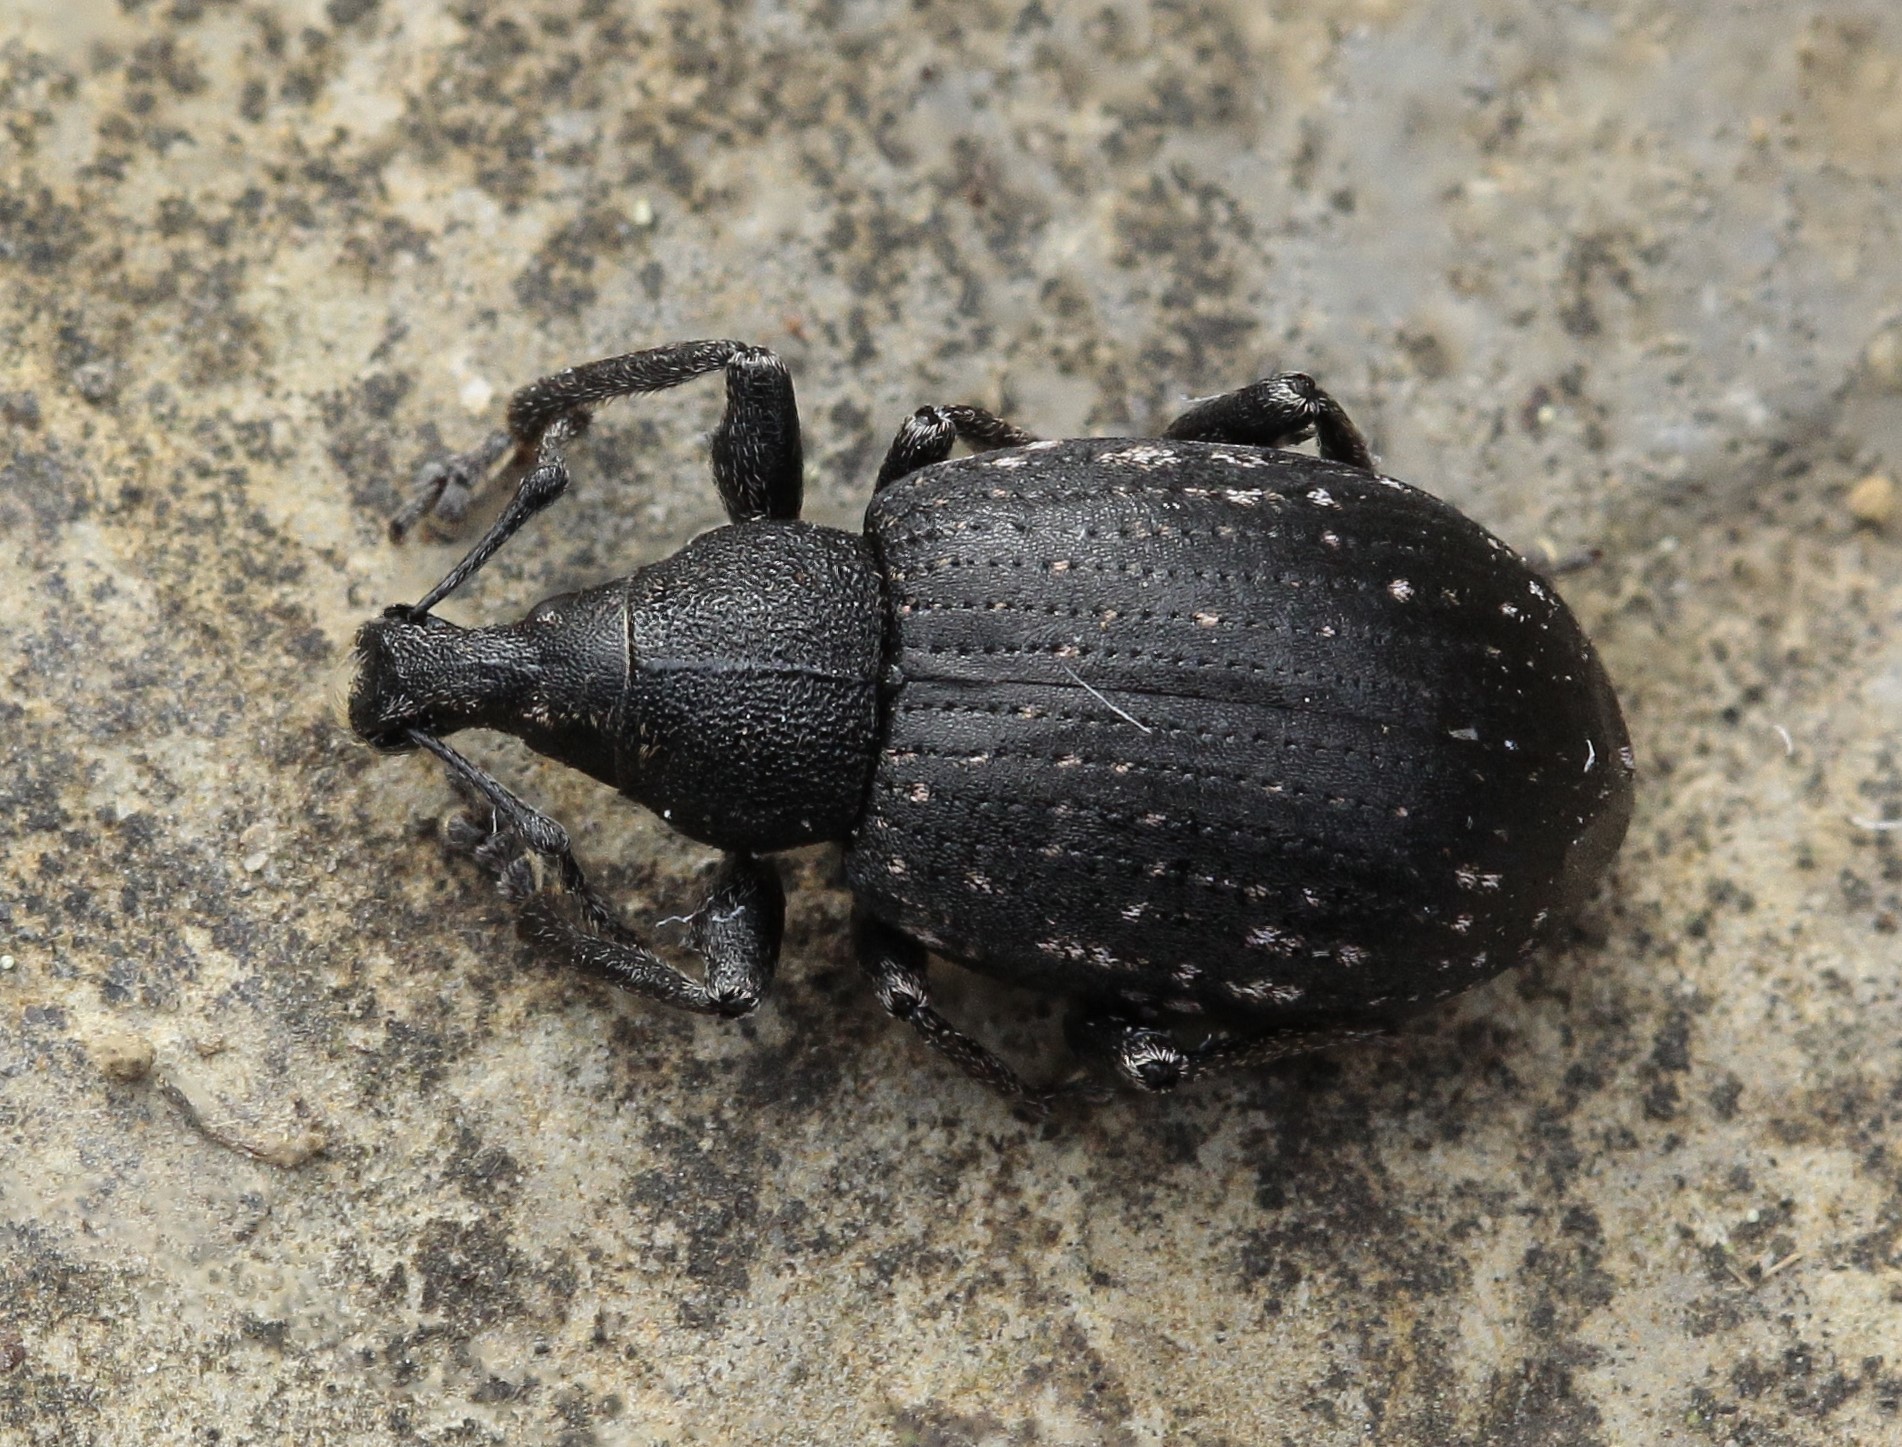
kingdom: Animalia
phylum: Arthropoda
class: Insecta
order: Coleoptera
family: Curculionidae
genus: Nastus
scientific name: Nastus fausti
